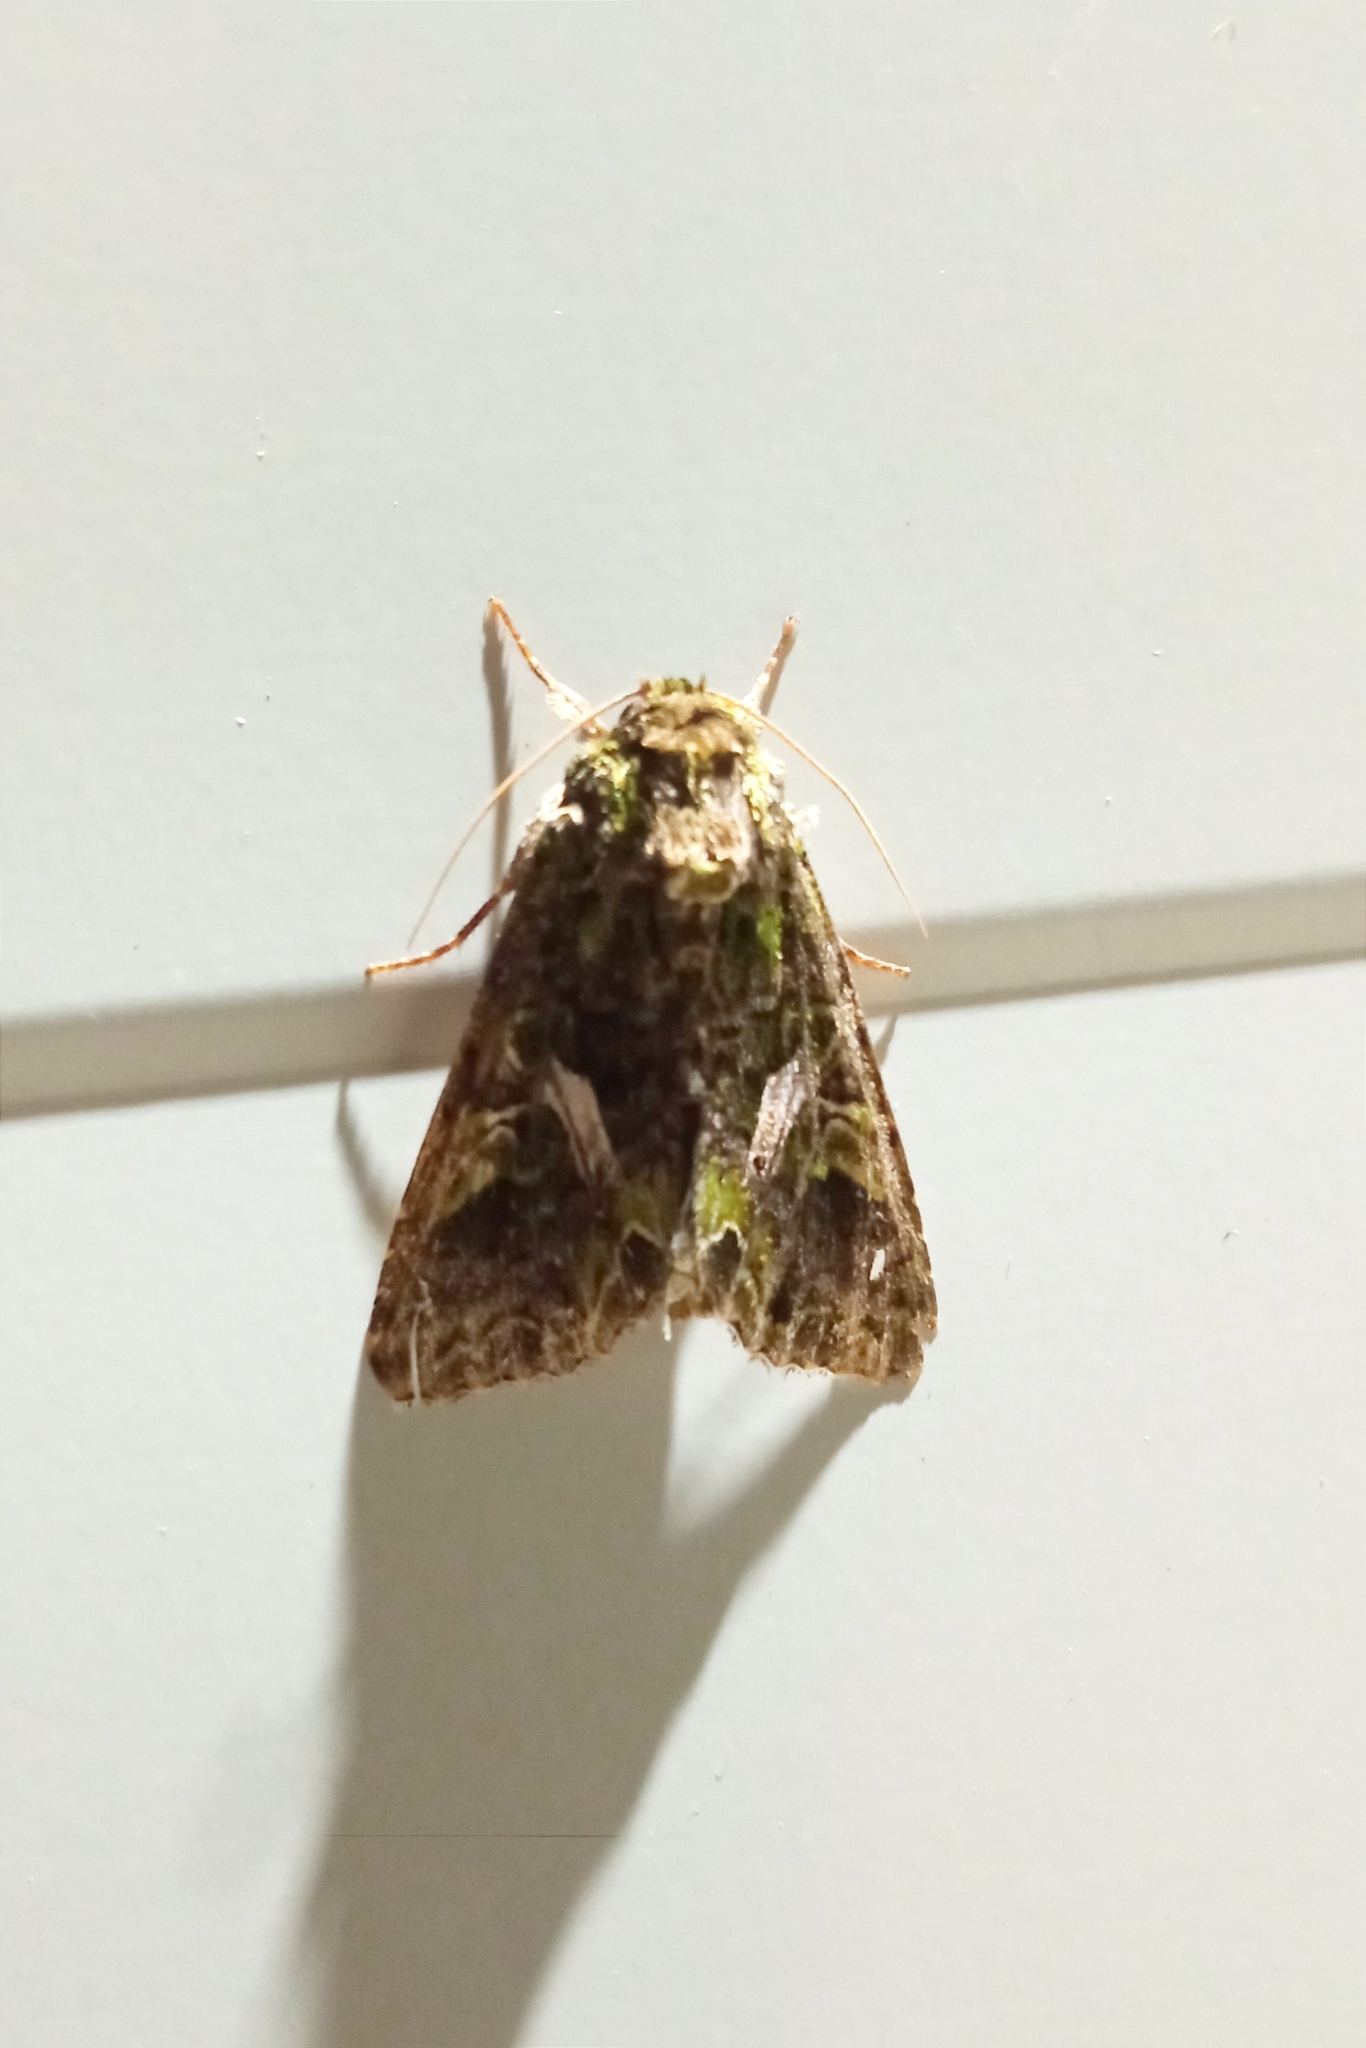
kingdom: Animalia
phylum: Arthropoda
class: Insecta
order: Lepidoptera
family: Noctuidae
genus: Trachea
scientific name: Trachea atriplicis
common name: Orache moth
